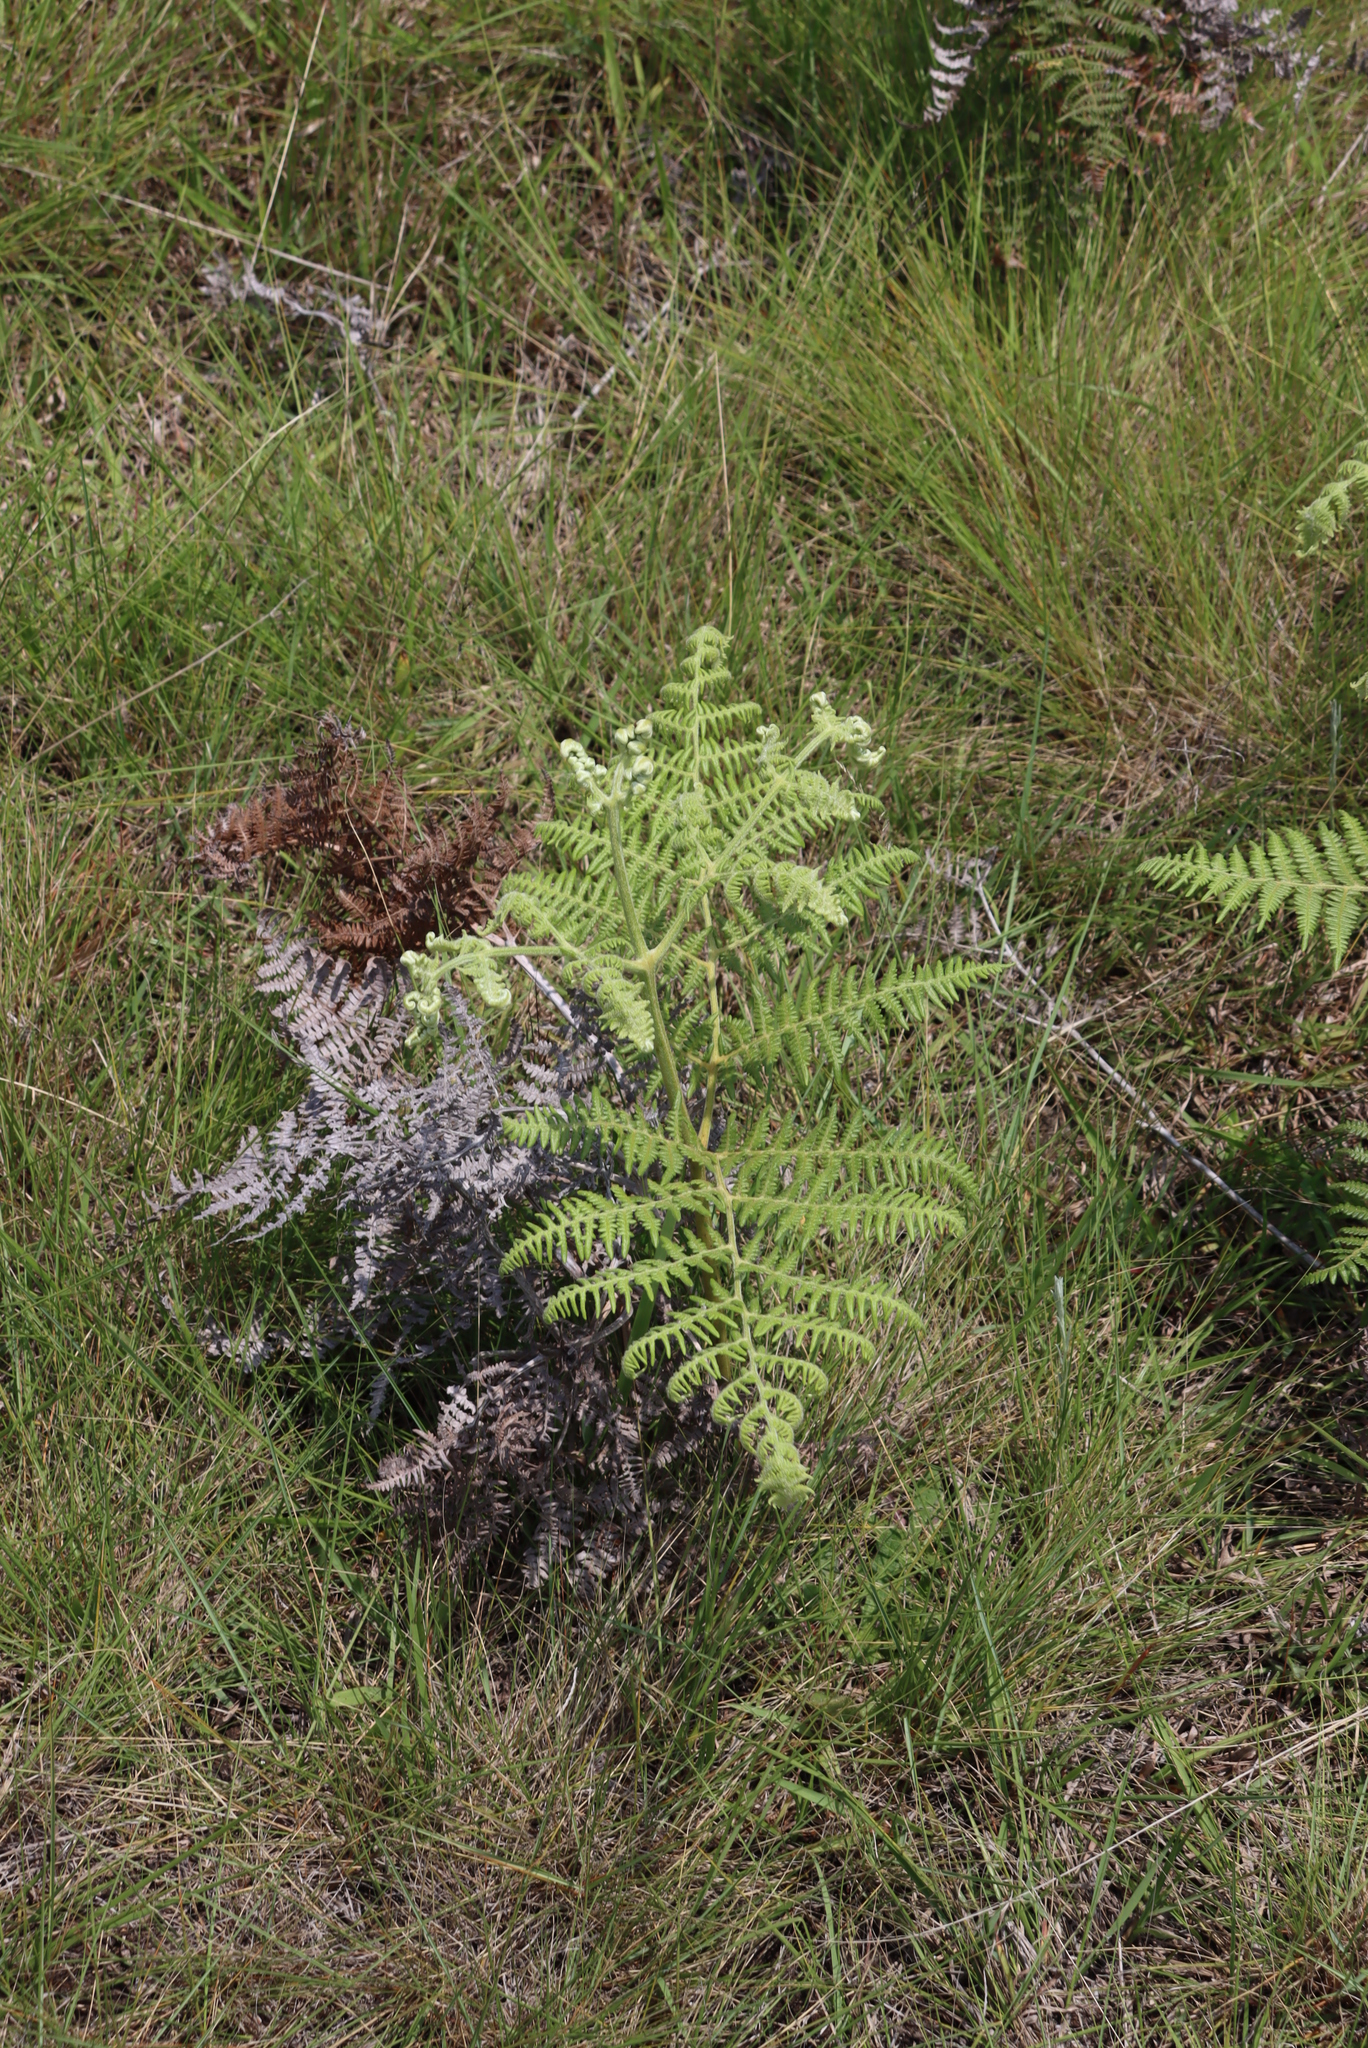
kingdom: Plantae
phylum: Tracheophyta
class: Polypodiopsida
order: Polypodiales
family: Dennstaedtiaceae
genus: Pteridium
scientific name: Pteridium aquilinum
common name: Bracken
